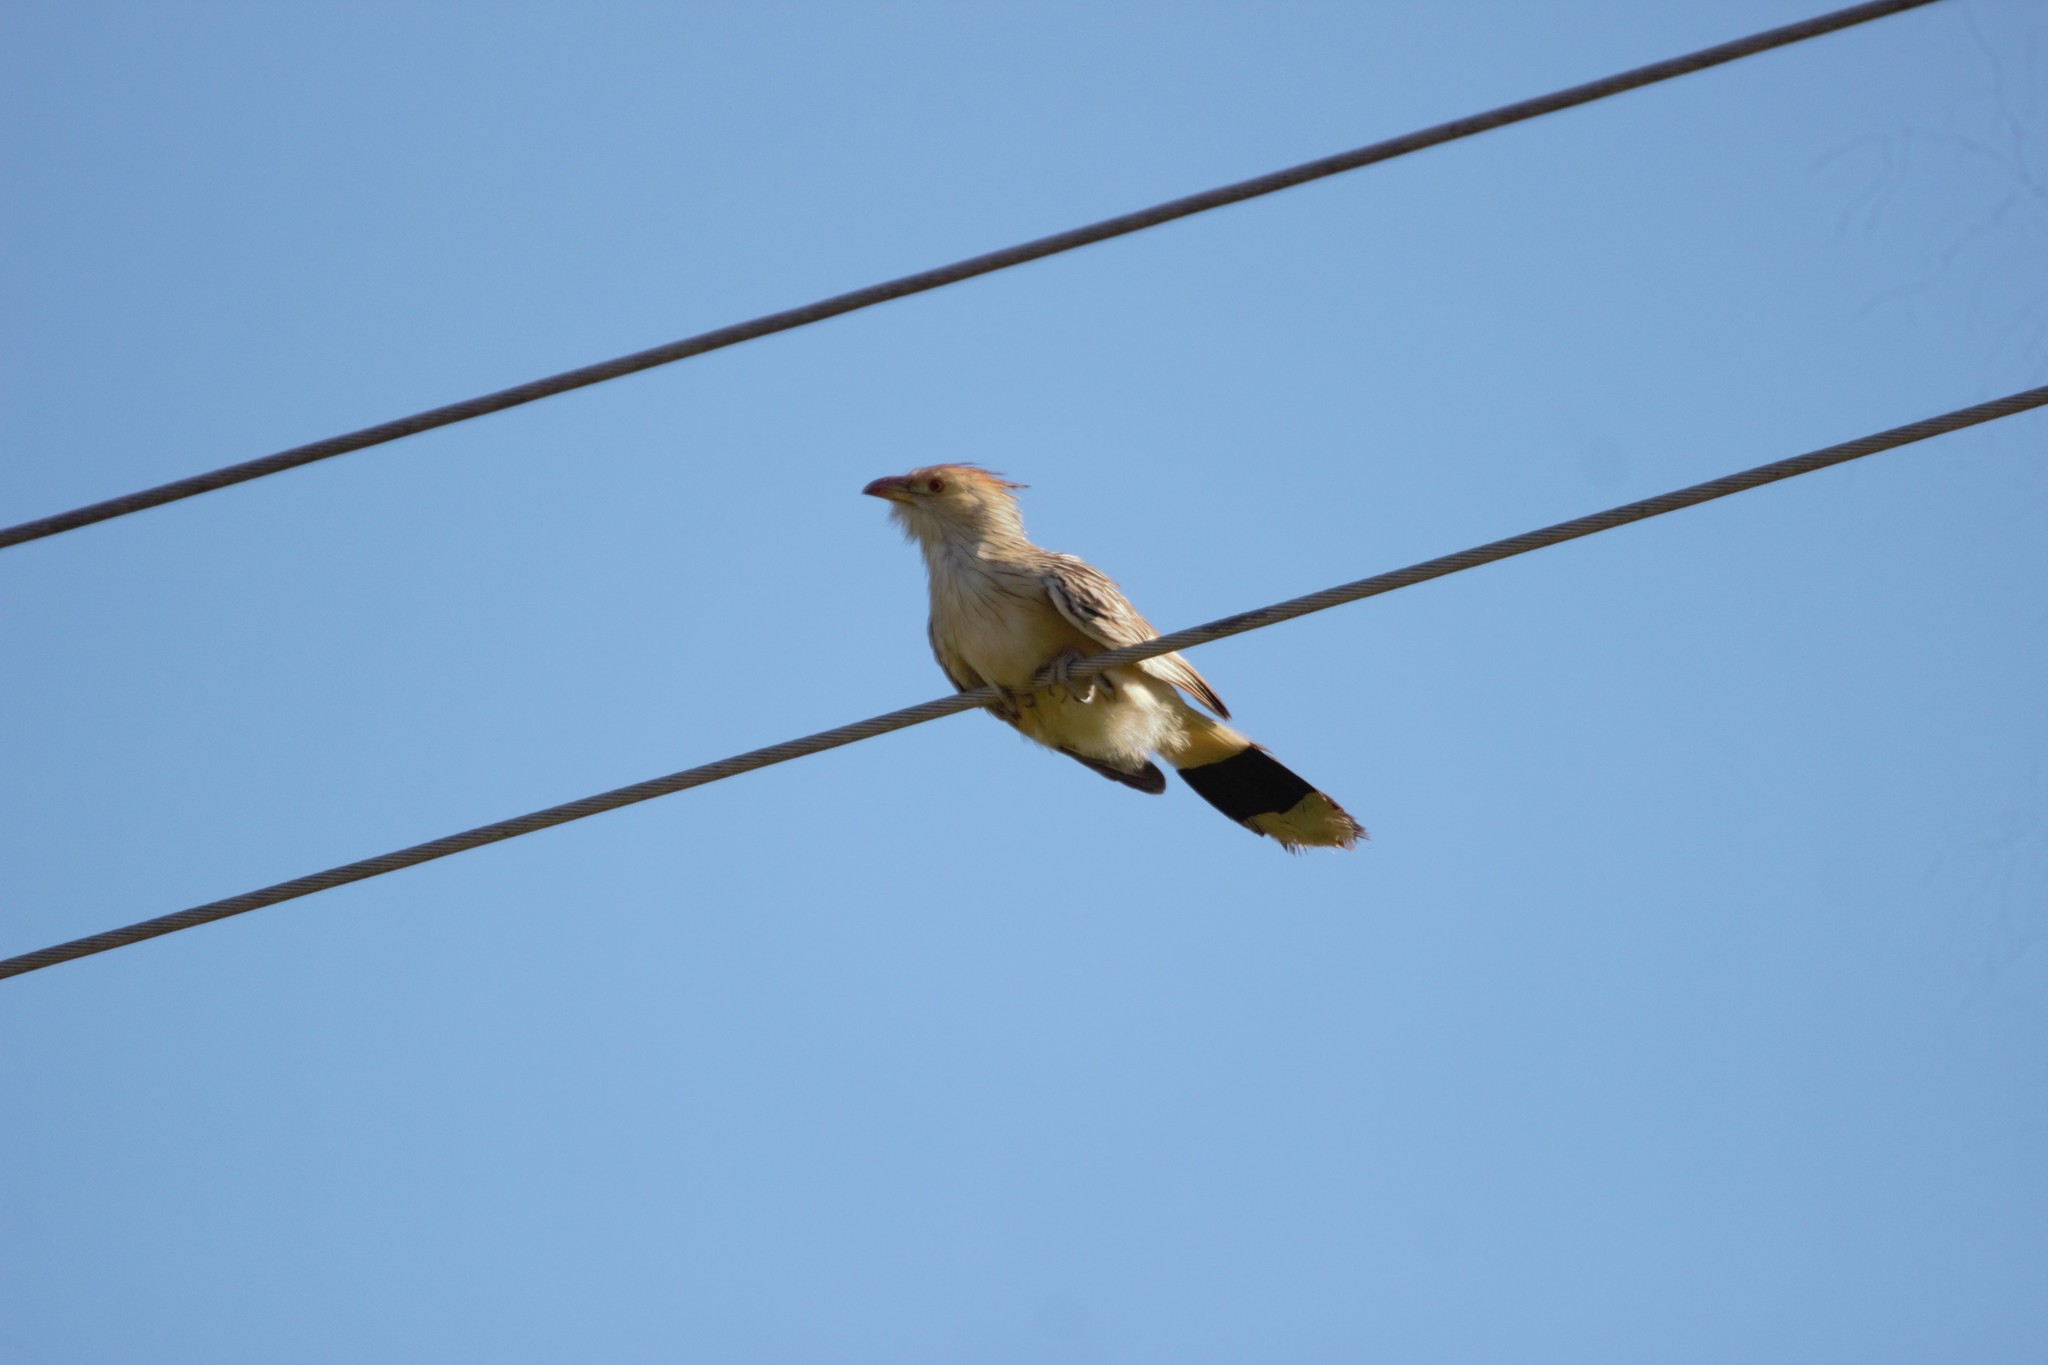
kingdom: Animalia
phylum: Chordata
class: Aves
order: Cuculiformes
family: Cuculidae
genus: Guira
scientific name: Guira guira
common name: Guira cuckoo
